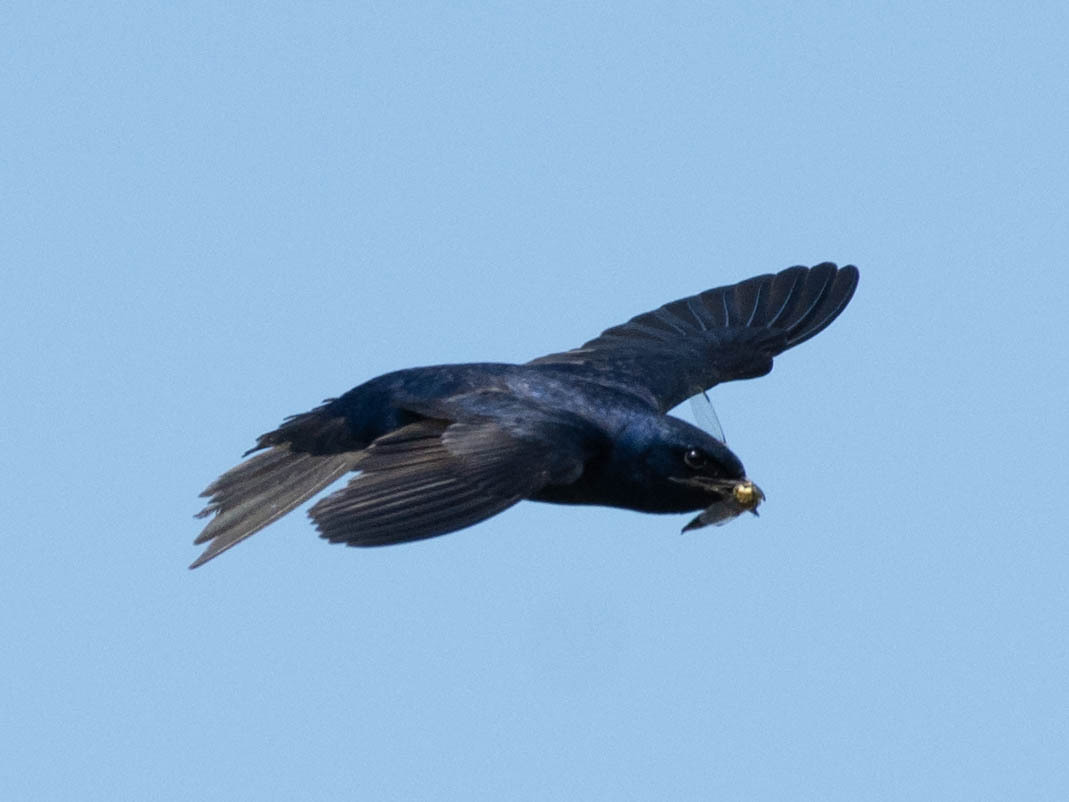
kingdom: Animalia
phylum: Chordata
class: Aves
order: Passeriformes
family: Hirundinidae
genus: Progne
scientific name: Progne subis
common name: Purple martin
